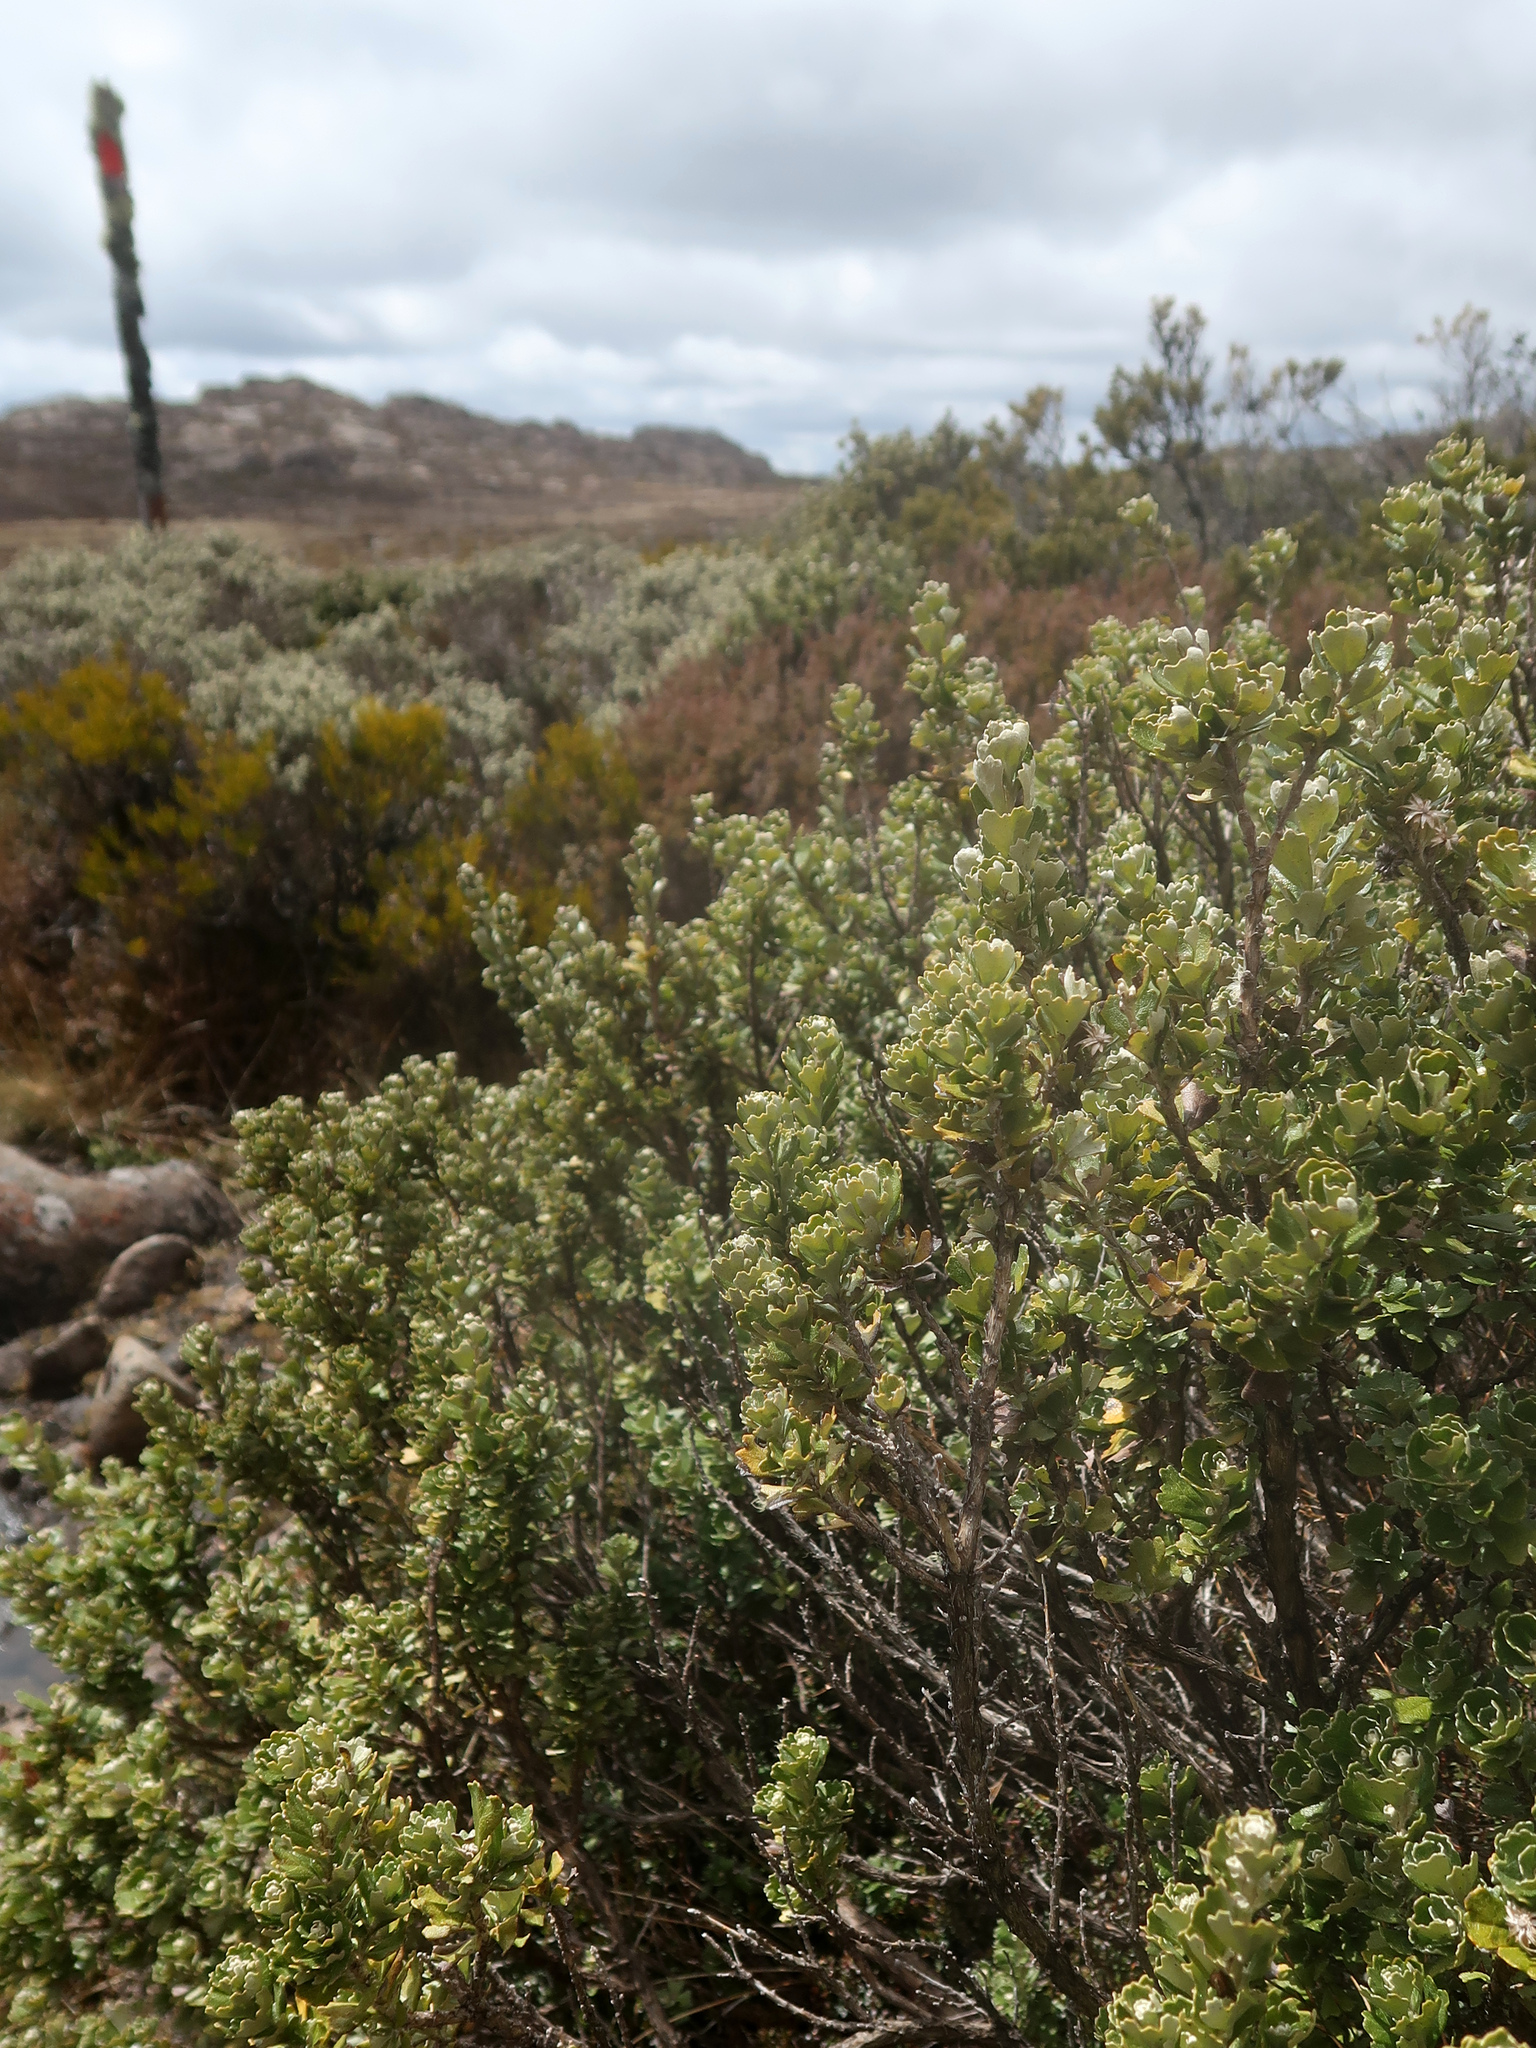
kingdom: Plantae
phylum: Tracheophyta
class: Magnoliopsida
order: Asterales
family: Asteraceae
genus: Olearia
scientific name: Olearia obcordata
